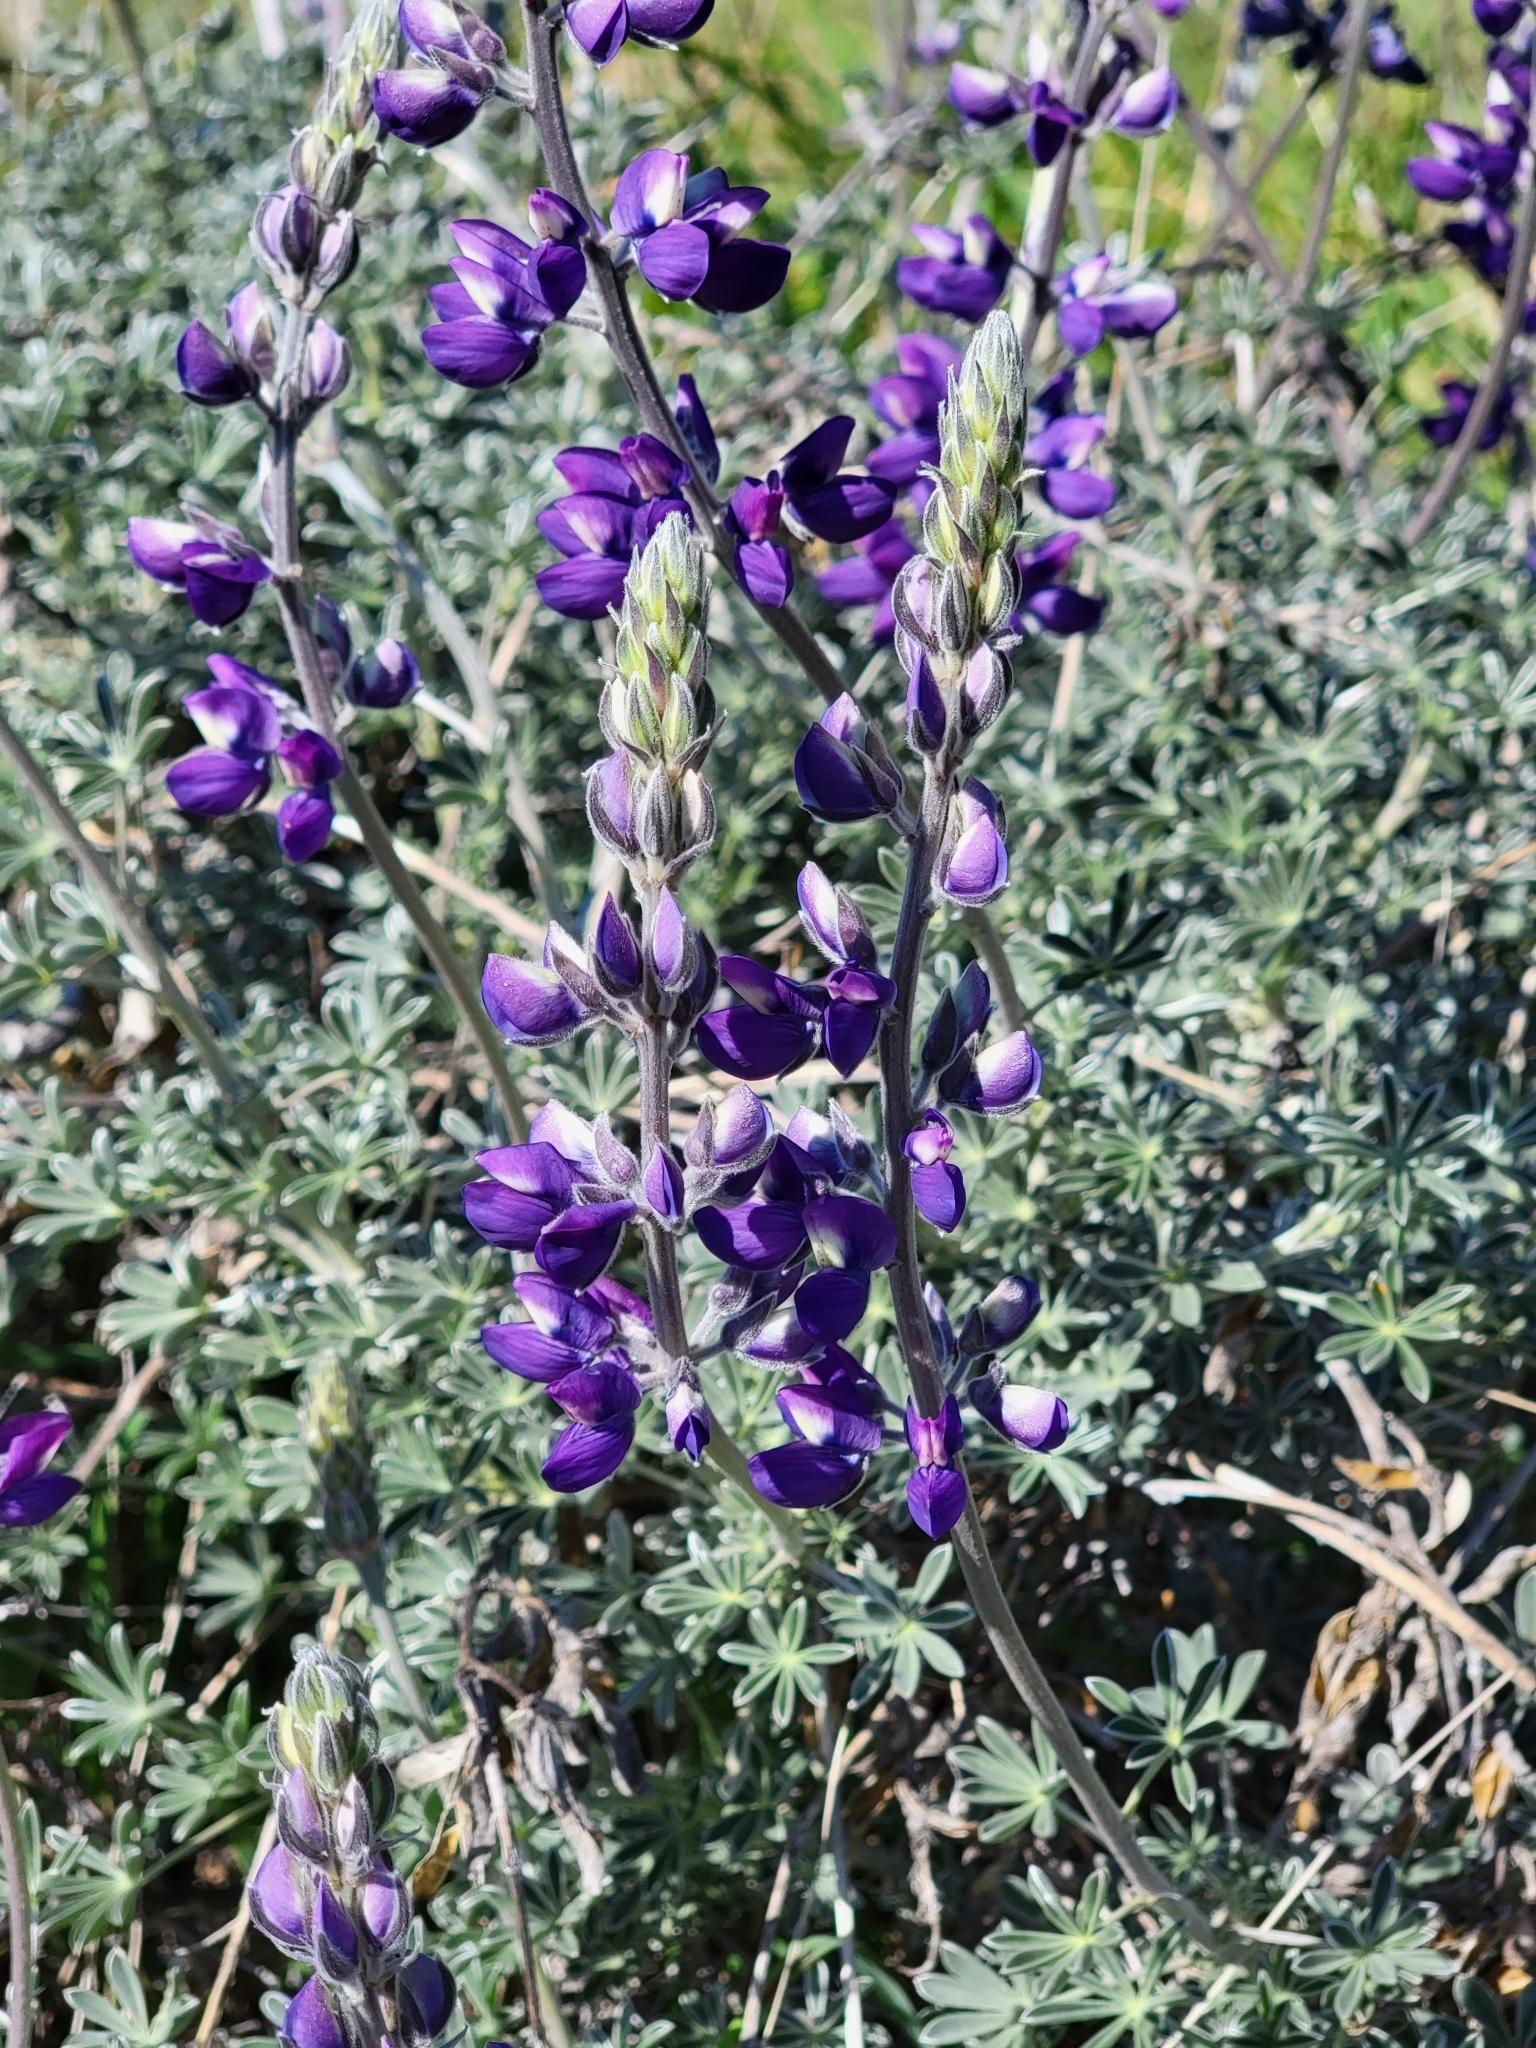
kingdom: Plantae
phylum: Tracheophyta
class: Magnoliopsida
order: Fabales
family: Fabaceae
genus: Lupinus
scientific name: Lupinus albifrons
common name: Foothill lupine
